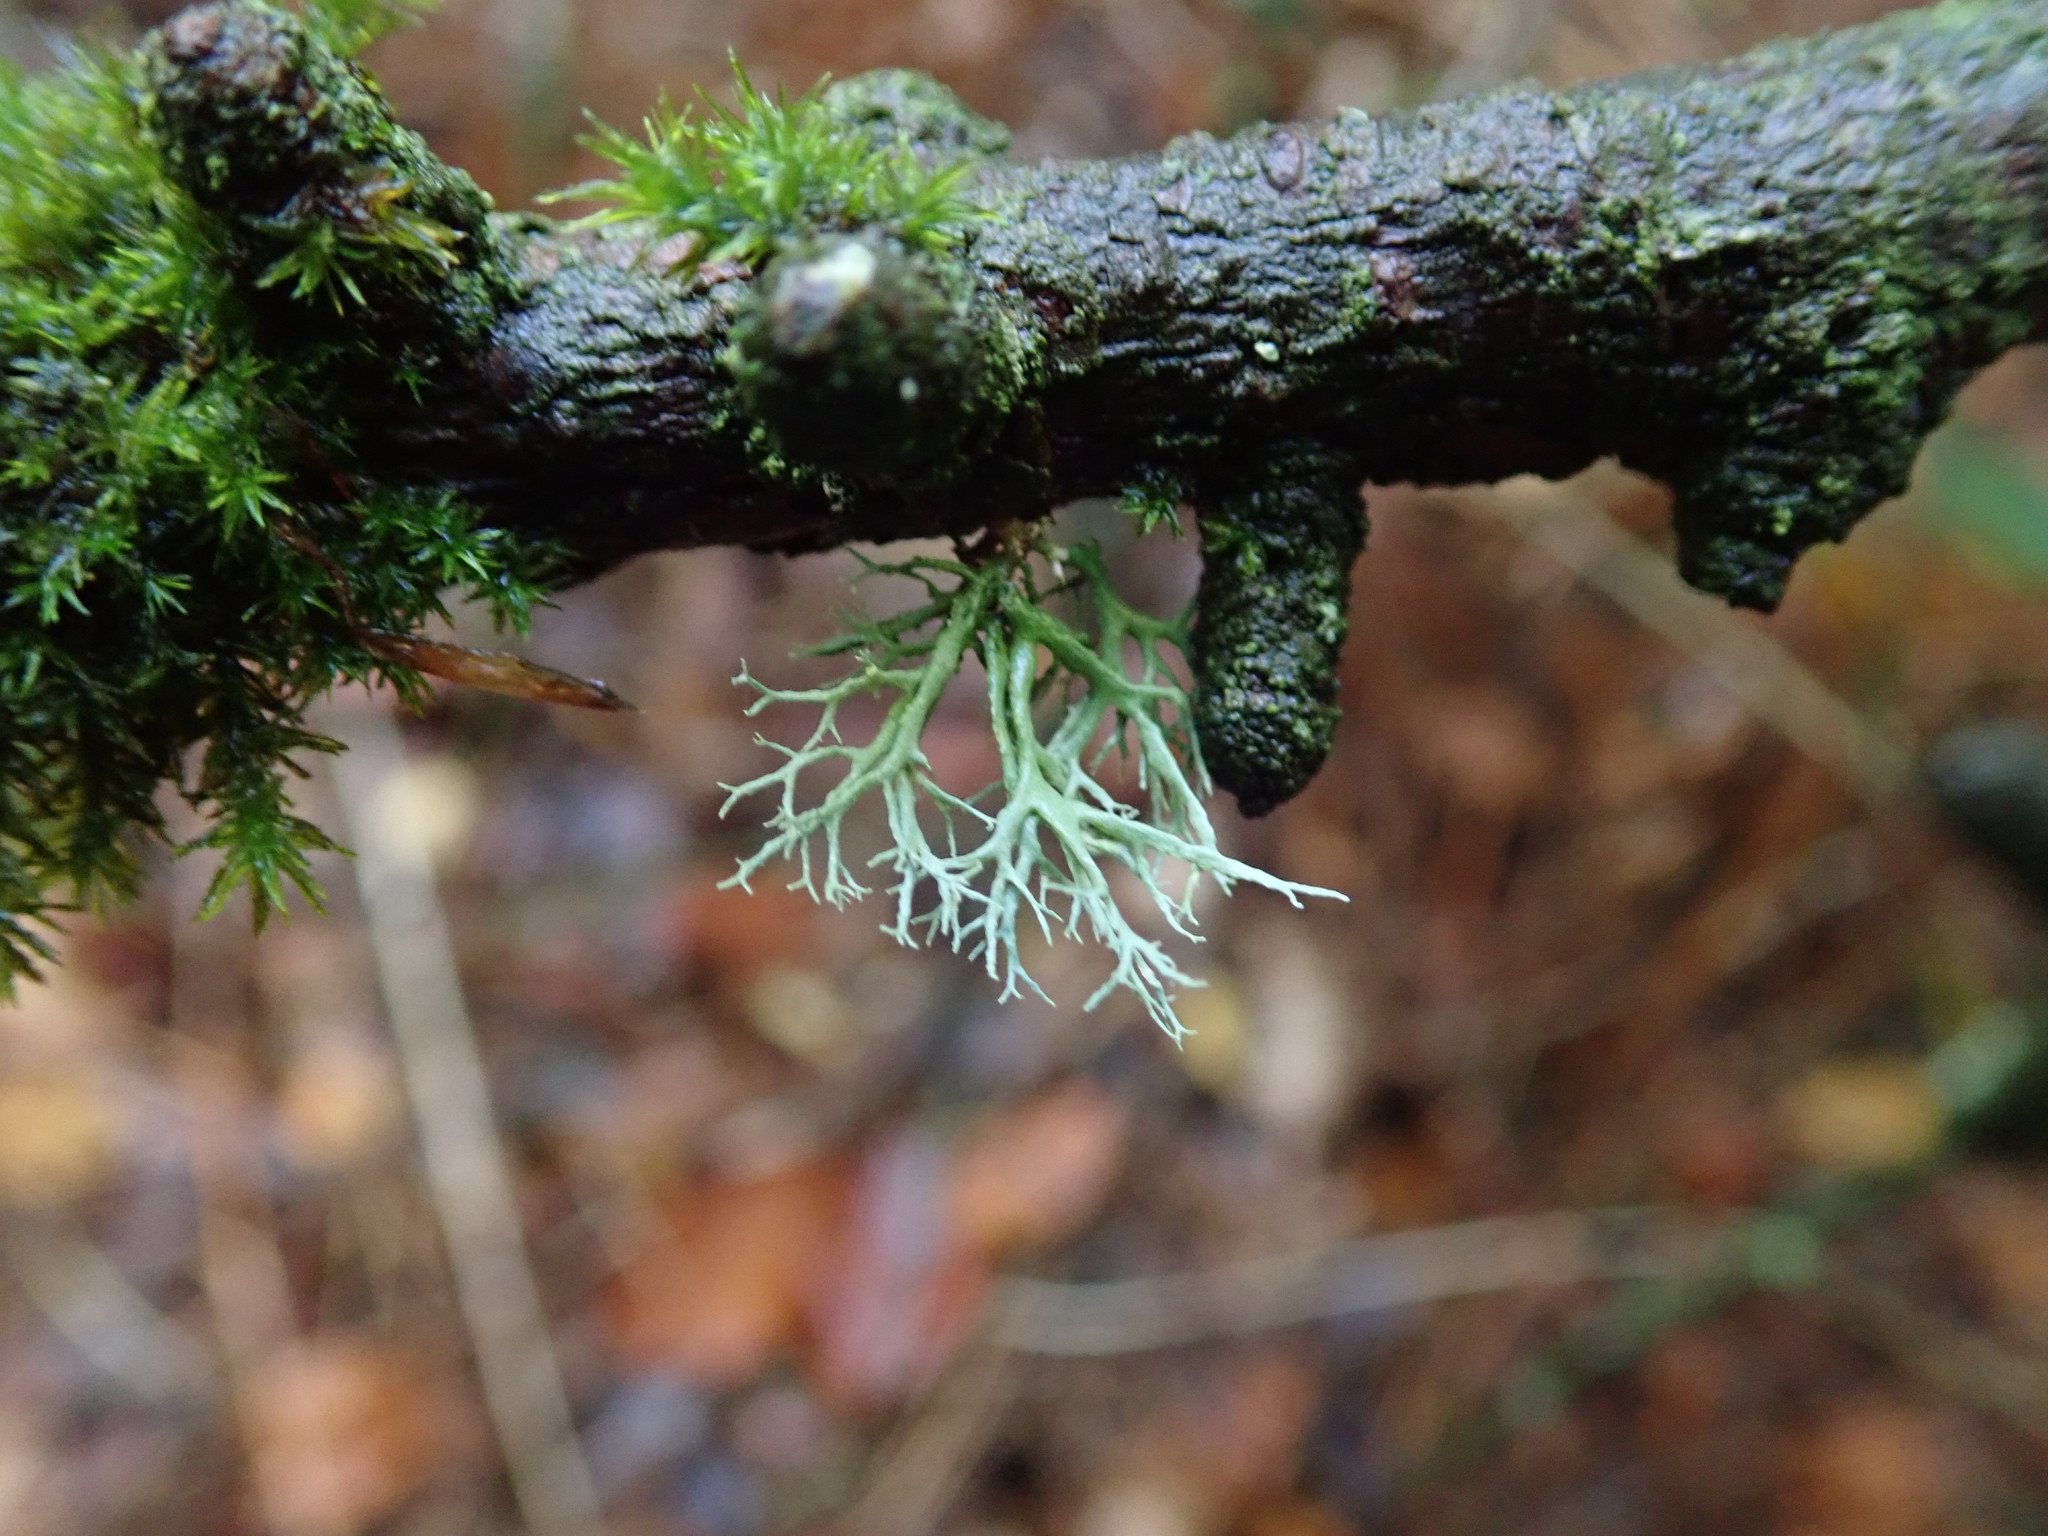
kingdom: Fungi
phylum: Ascomycota
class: Lecanoromycetes
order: Lecanorales
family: Parmeliaceae
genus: Evernia
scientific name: Evernia prunastri
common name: Oak moss
